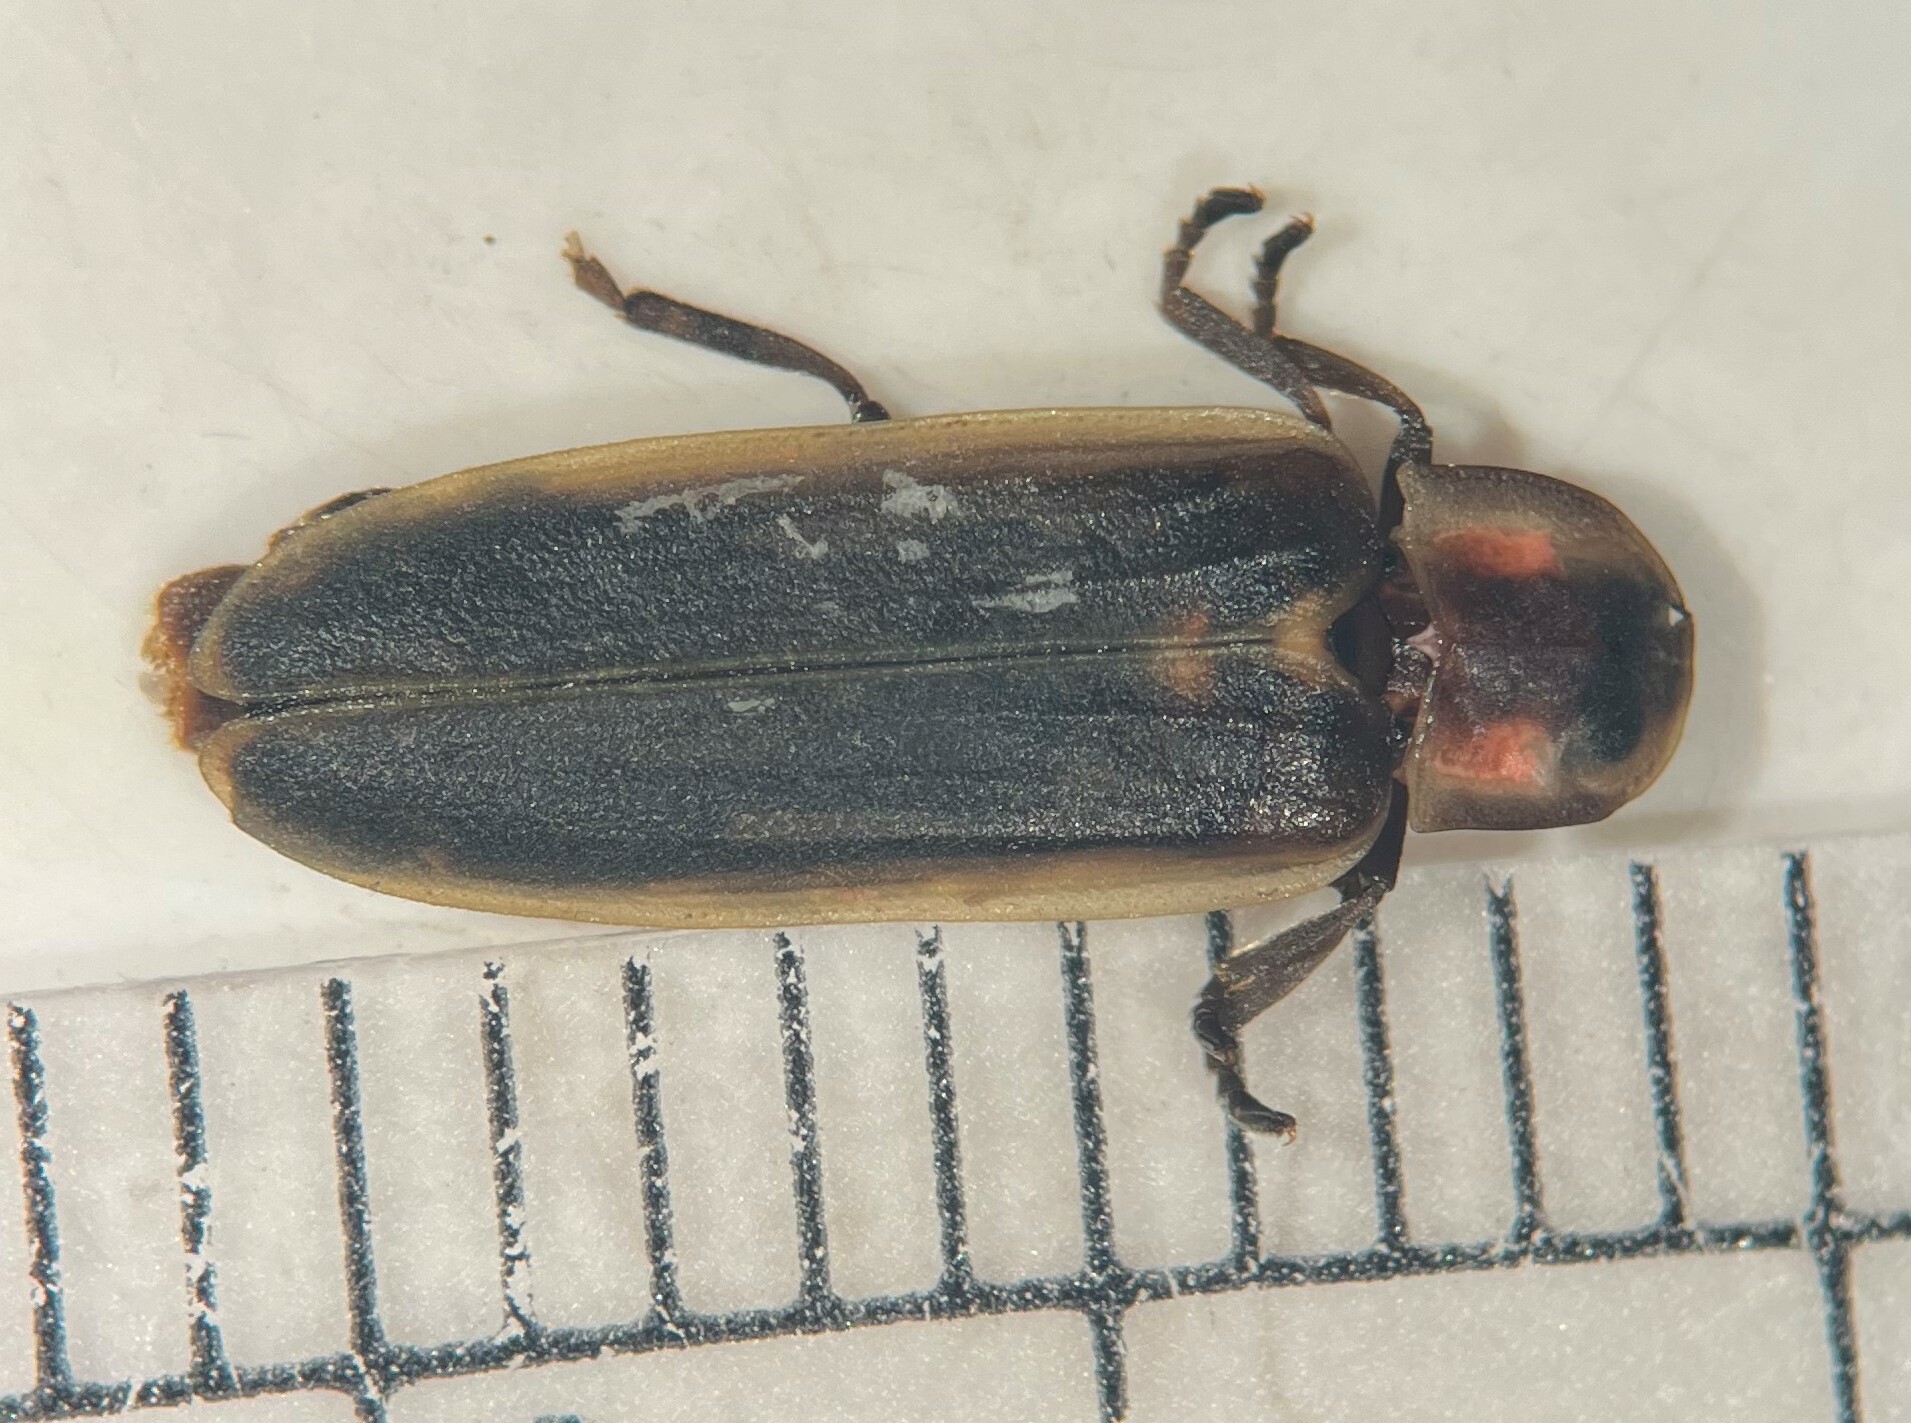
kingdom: Animalia
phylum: Arthropoda
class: Insecta
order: Coleoptera
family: Lampyridae
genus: Pyractomena
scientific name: Pyractomena linearis
